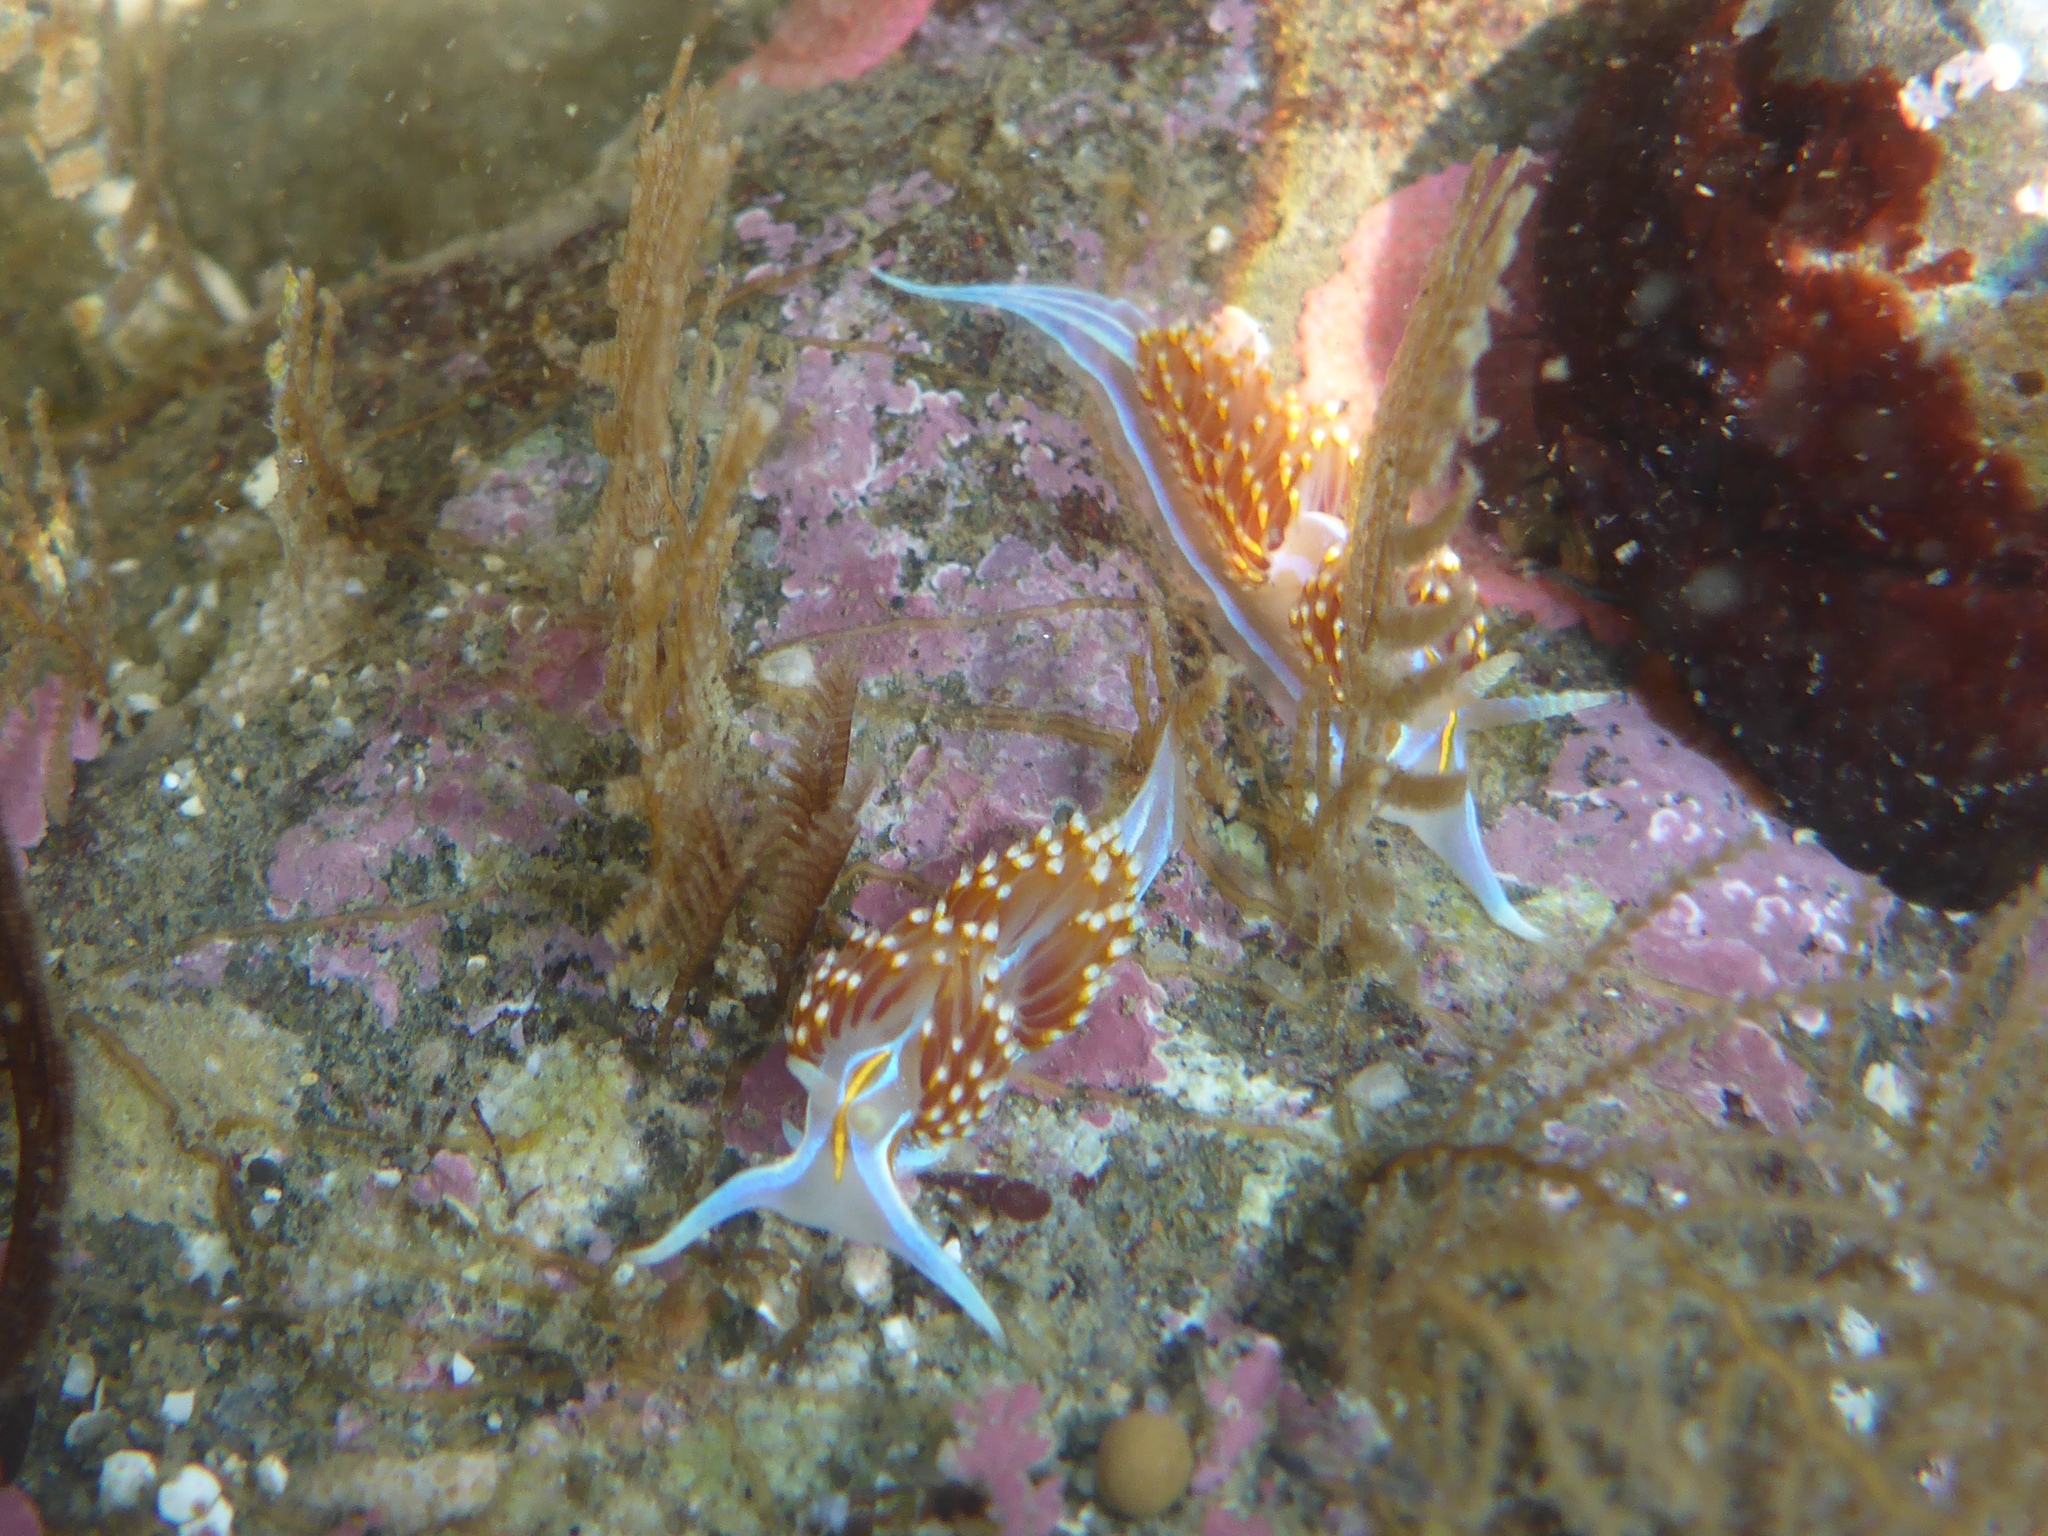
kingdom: Animalia
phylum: Mollusca
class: Gastropoda
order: Nudibranchia
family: Myrrhinidae
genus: Hermissenda
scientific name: Hermissenda opalescens
